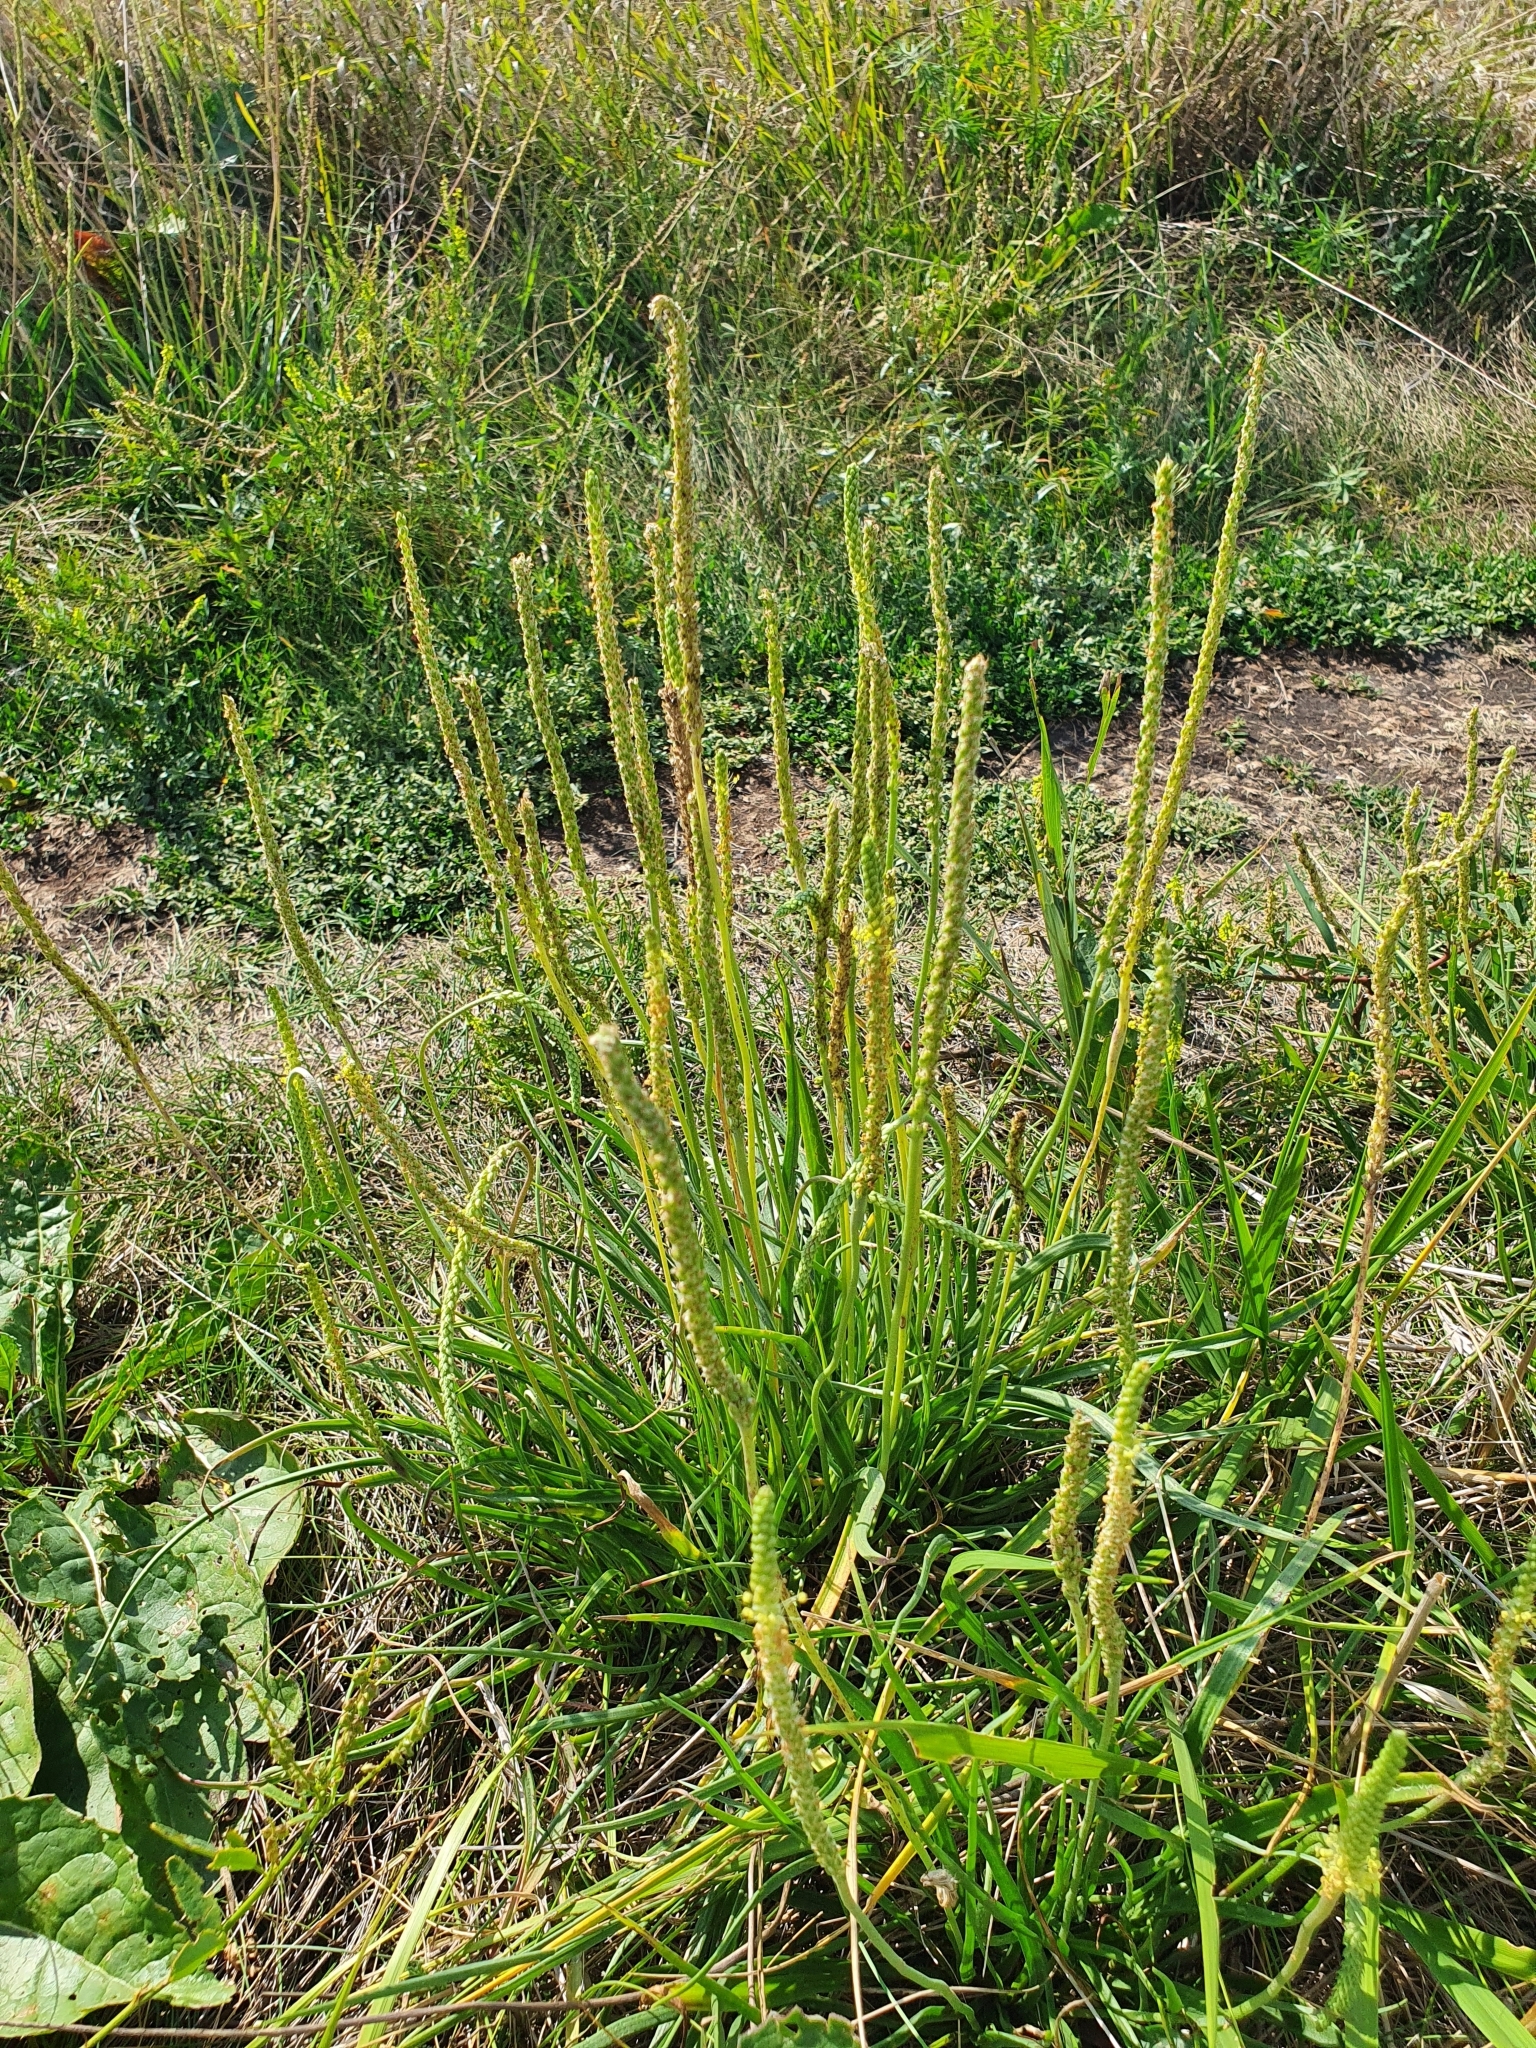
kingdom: Plantae
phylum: Tracheophyta
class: Magnoliopsida
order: Lamiales
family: Plantaginaceae
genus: Plantago
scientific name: Plantago salsa
